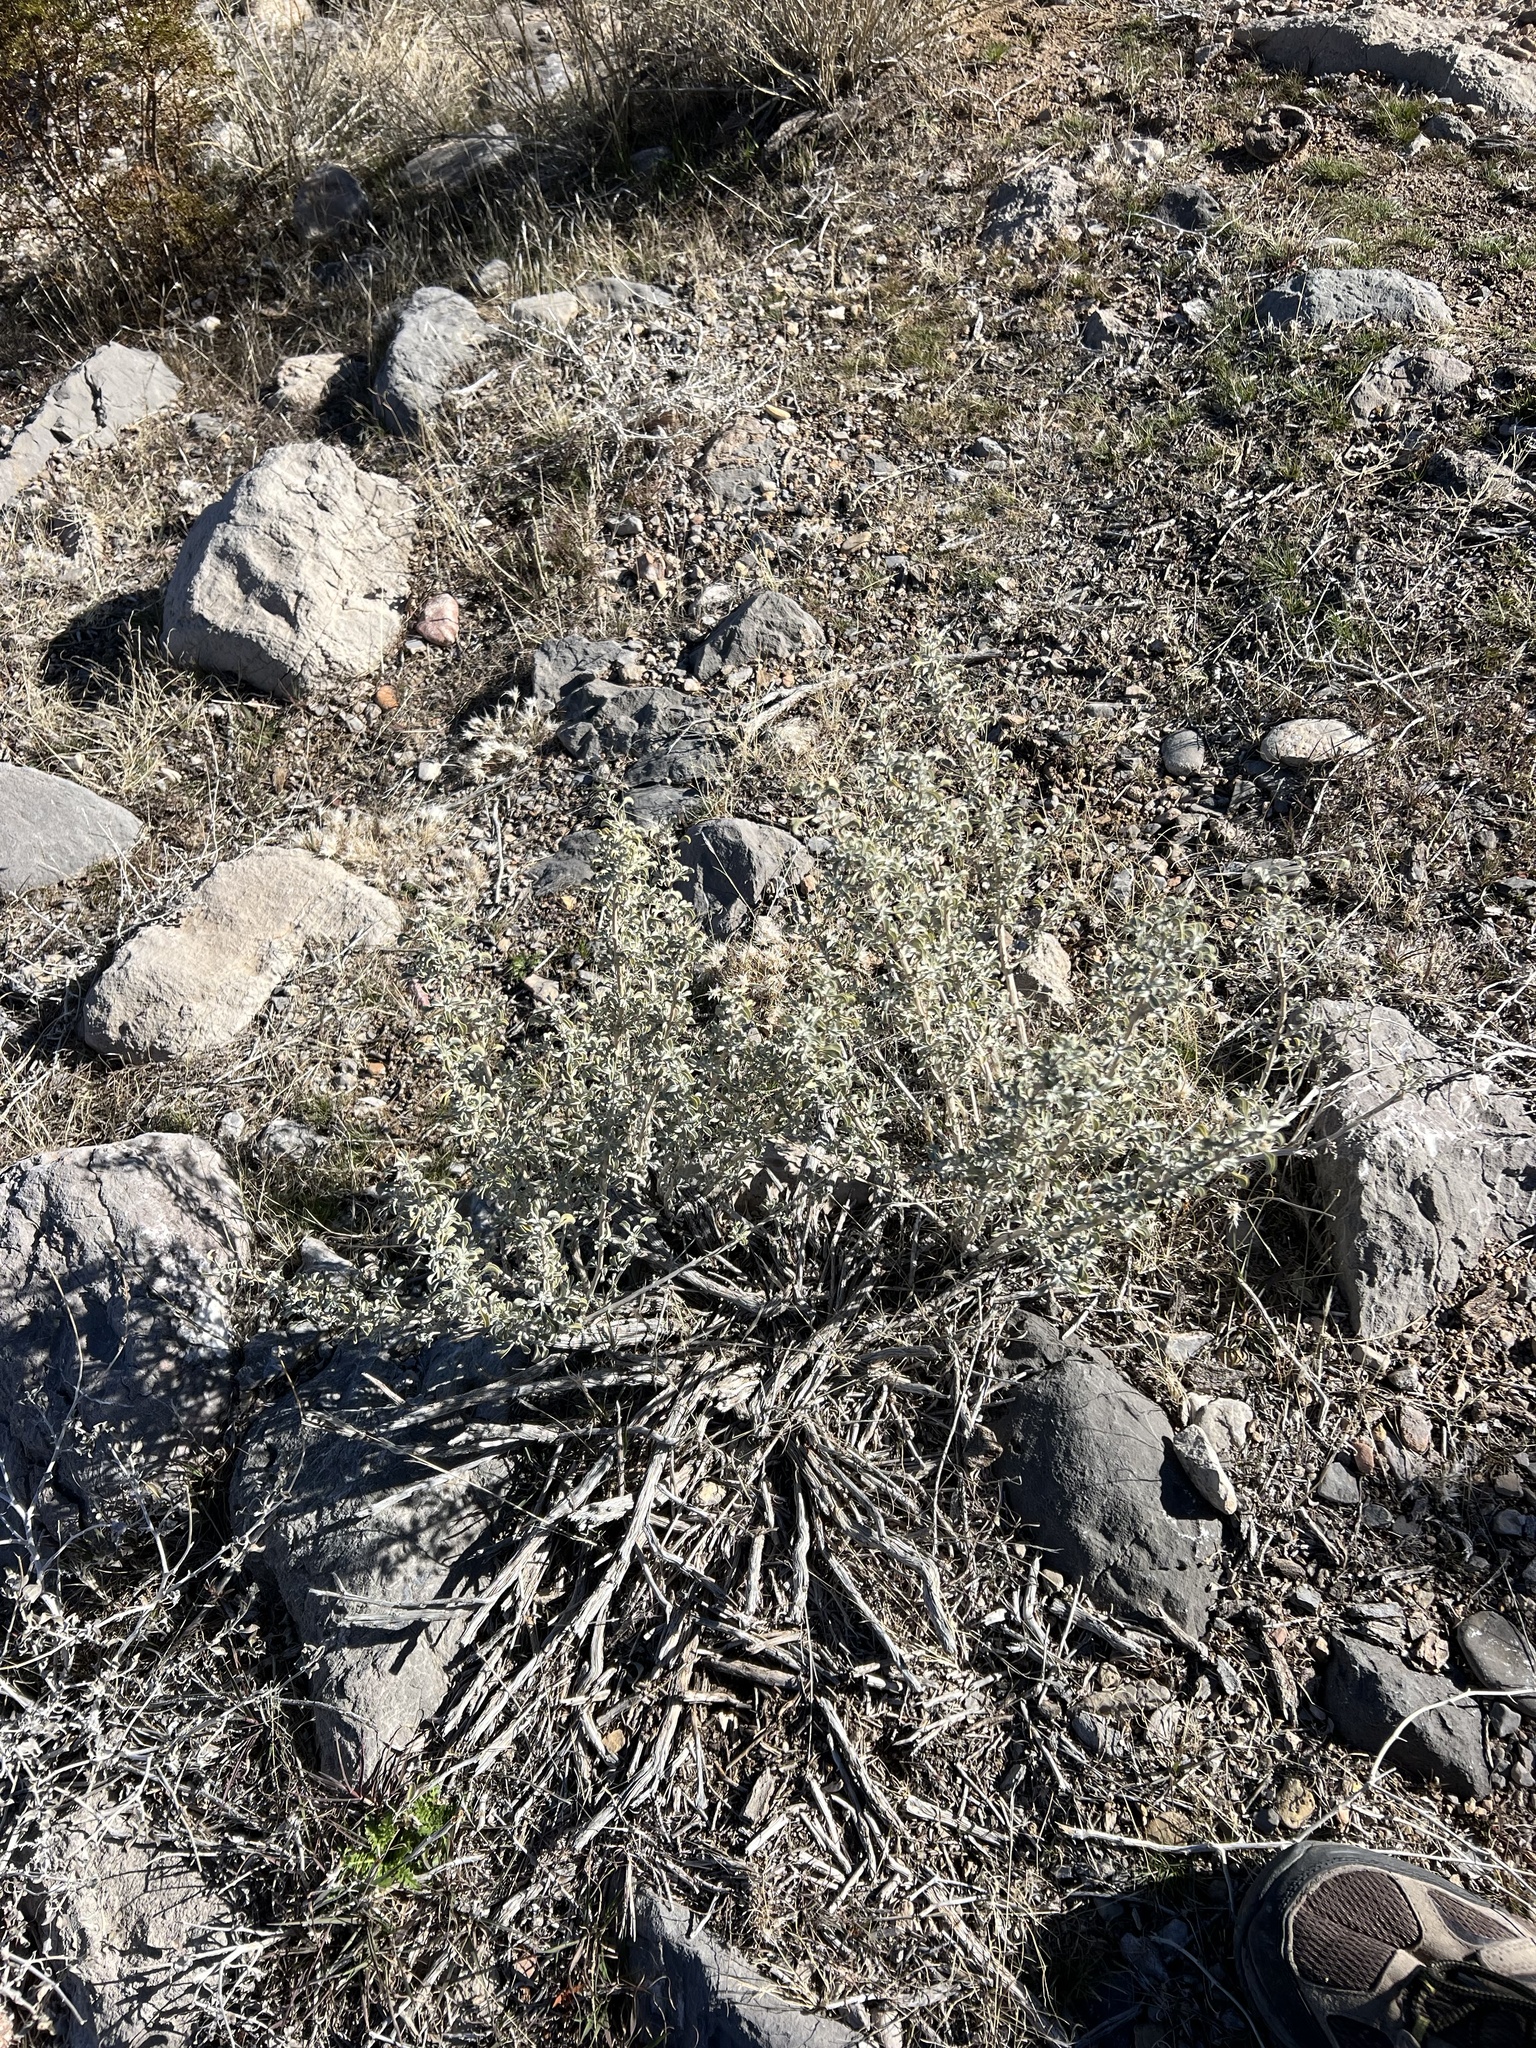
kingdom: Plantae
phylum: Tracheophyta
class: Magnoliopsida
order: Lamiales
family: Lamiaceae
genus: Salvia
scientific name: Salvia dorrii
